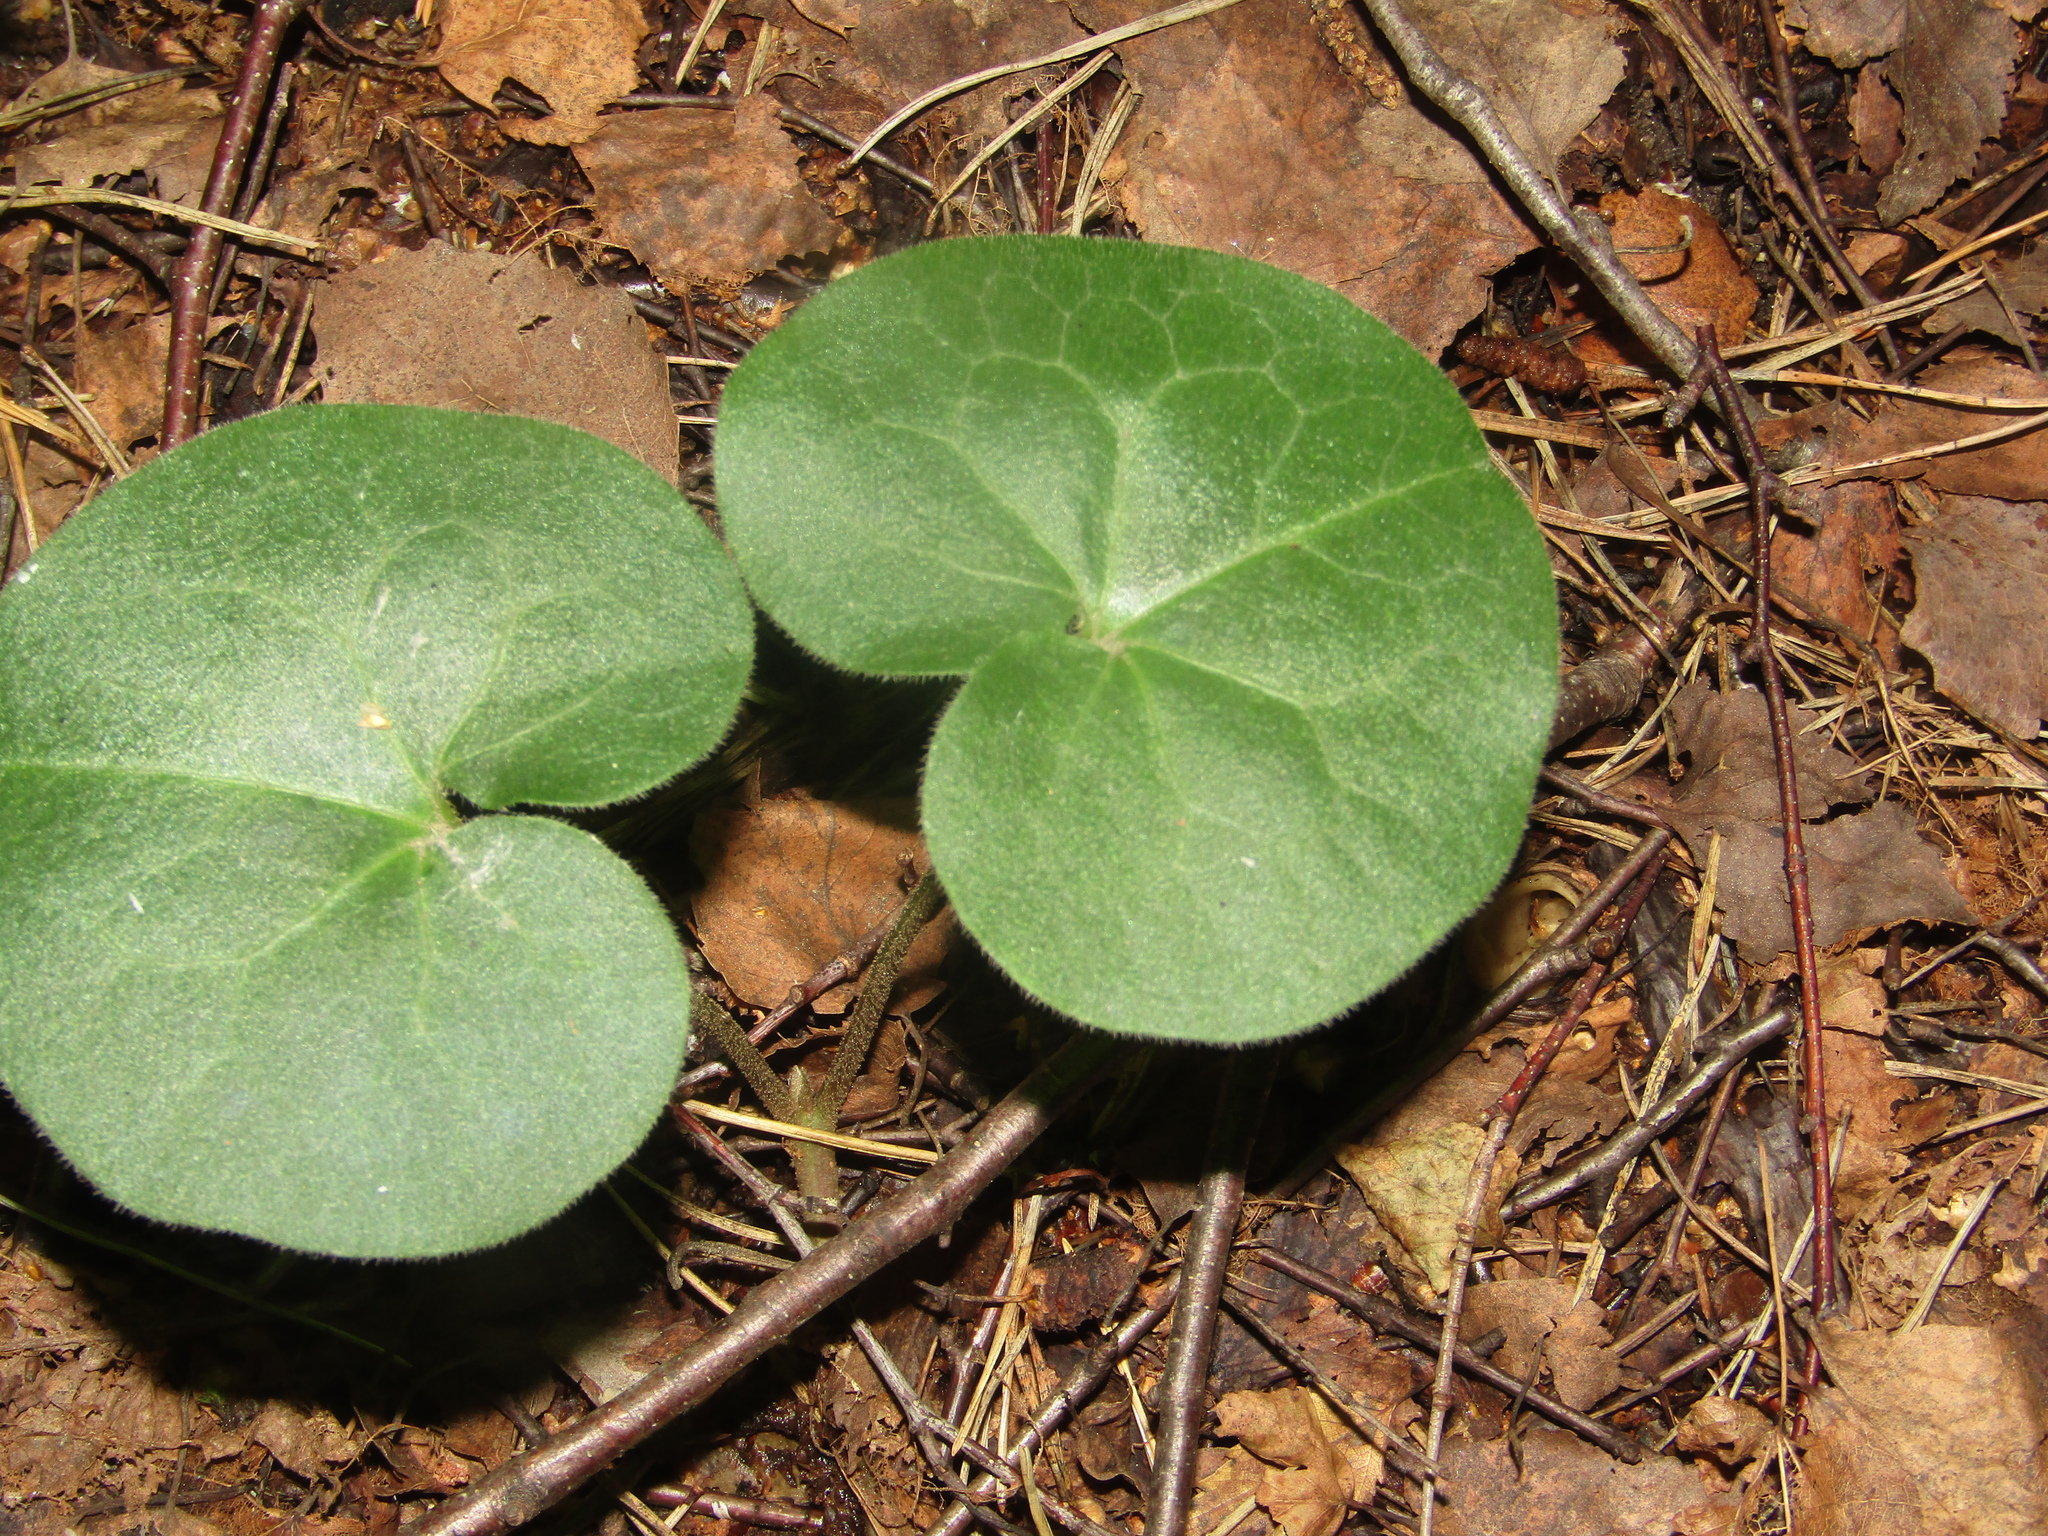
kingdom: Plantae
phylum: Tracheophyta
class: Magnoliopsida
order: Piperales
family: Aristolochiaceae
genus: Asarum
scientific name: Asarum europaeum
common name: Asarabacca
